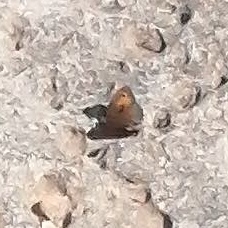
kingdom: Animalia
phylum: Arthropoda
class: Insecta
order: Lepidoptera
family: Nymphalidae
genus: Maniola
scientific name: Maniola telmessia
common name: Persian meadow brown
